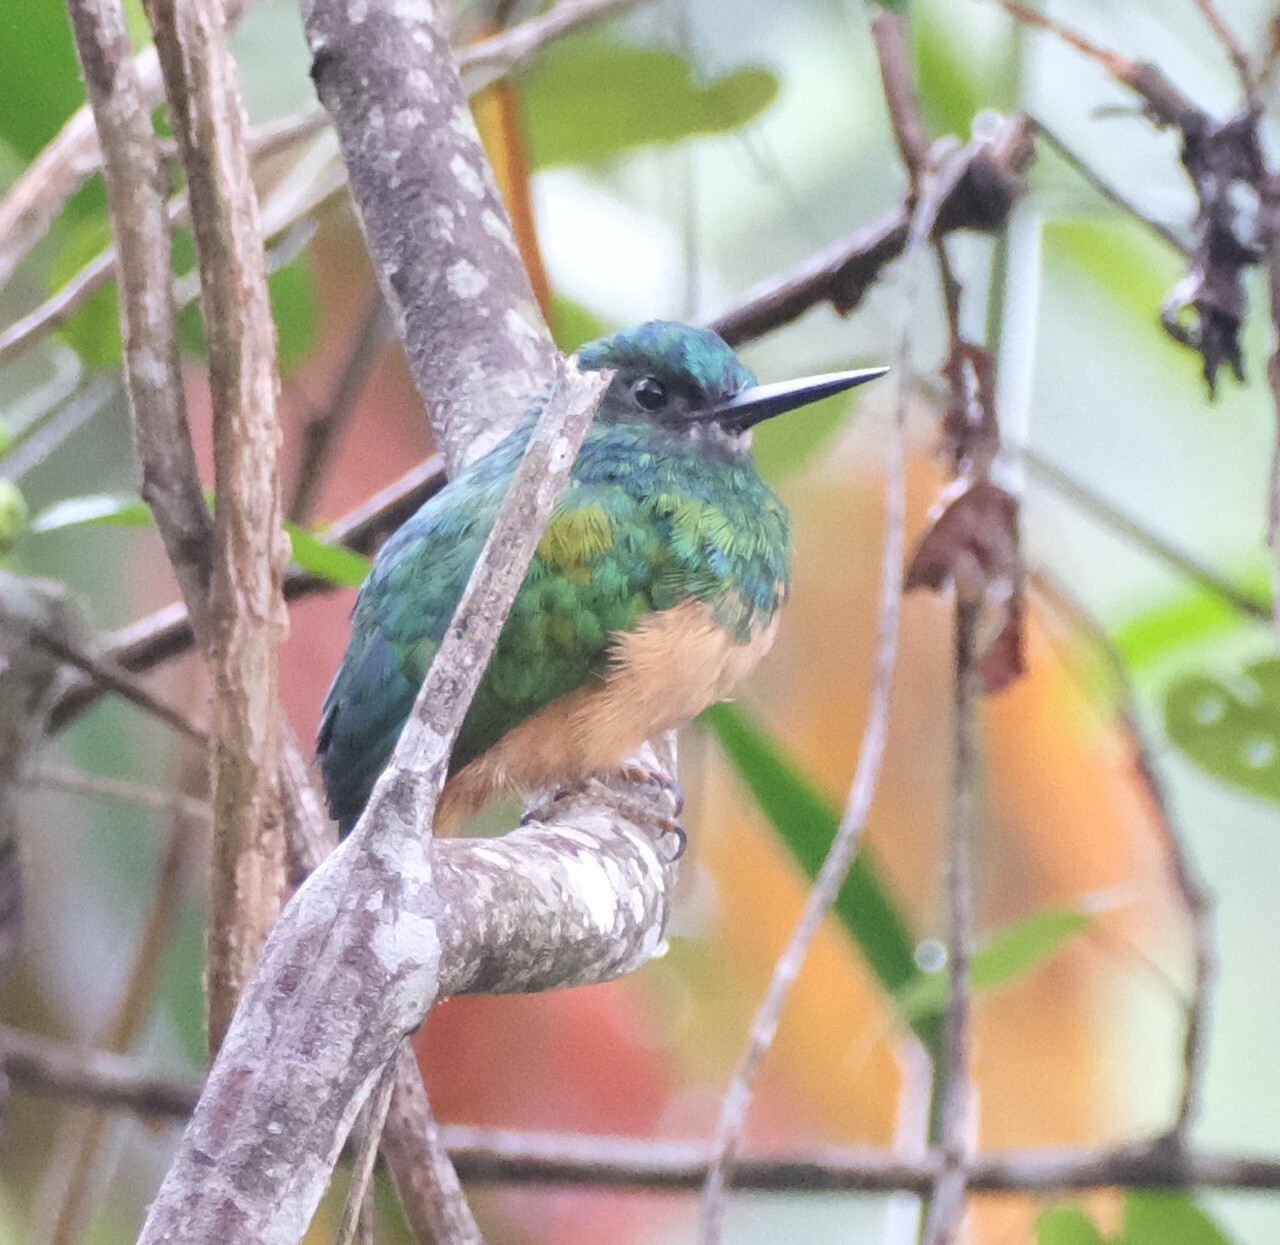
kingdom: Animalia
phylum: Chordata
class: Aves
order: Piciformes
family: Galbulidae
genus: Galbula
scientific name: Galbula cyanescens
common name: Bluish-fronted jacamar
